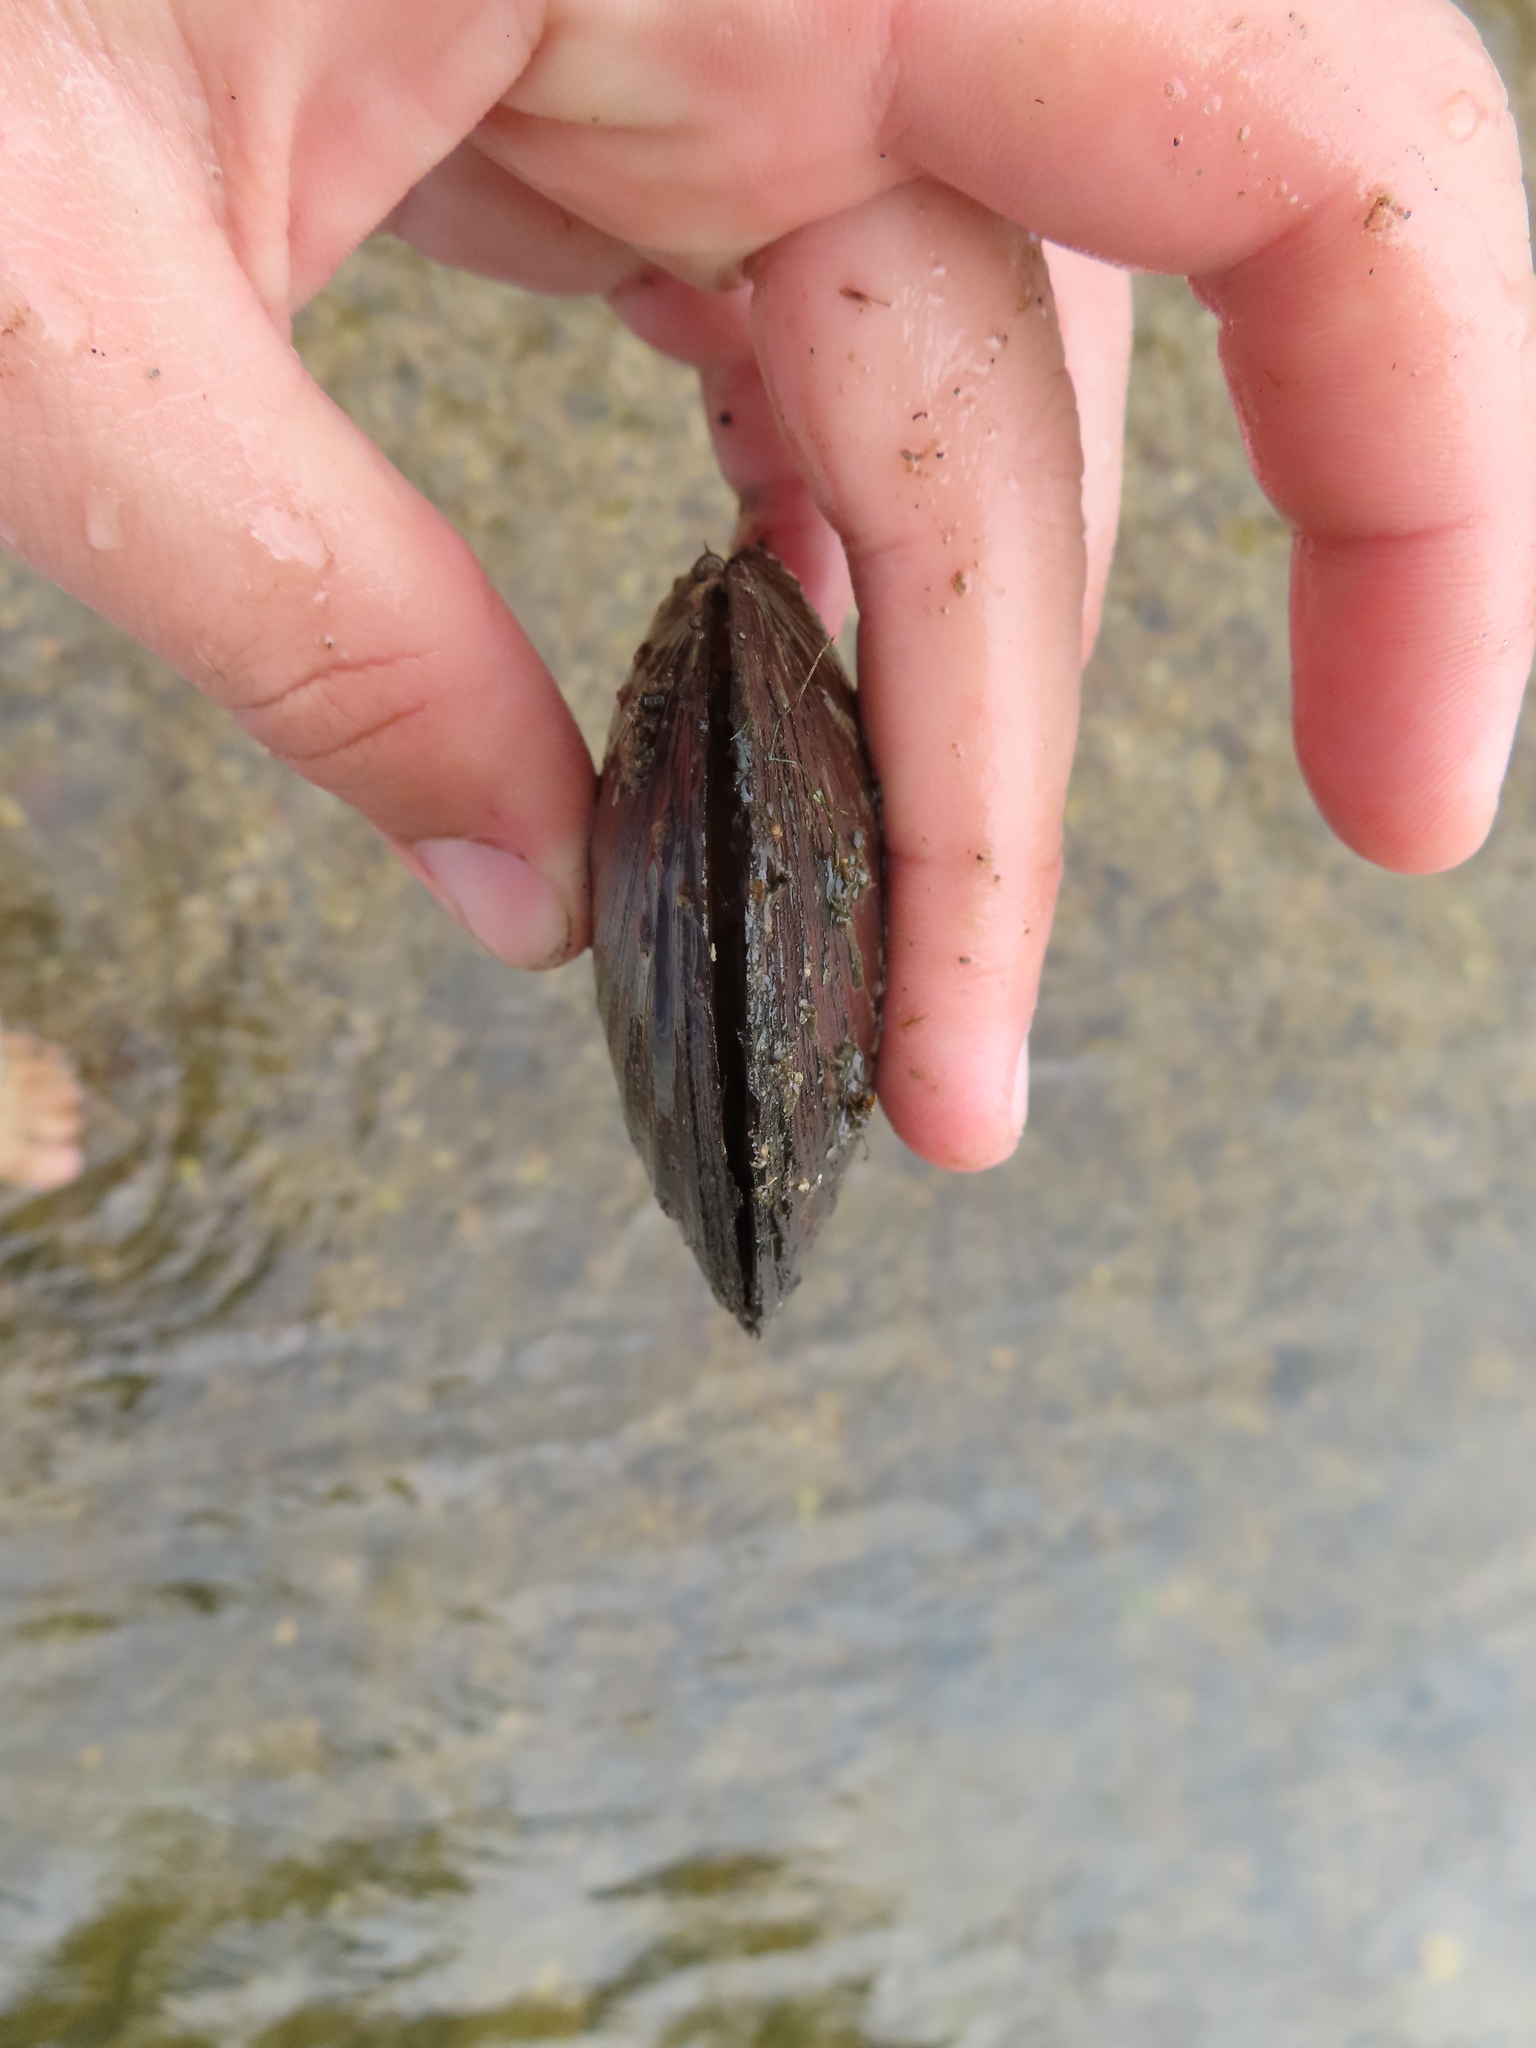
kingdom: Animalia
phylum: Mollusca
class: Bivalvia
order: Unionida
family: Unionidae
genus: Lasmigona
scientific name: Lasmigona complanata
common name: White heelsplitter
